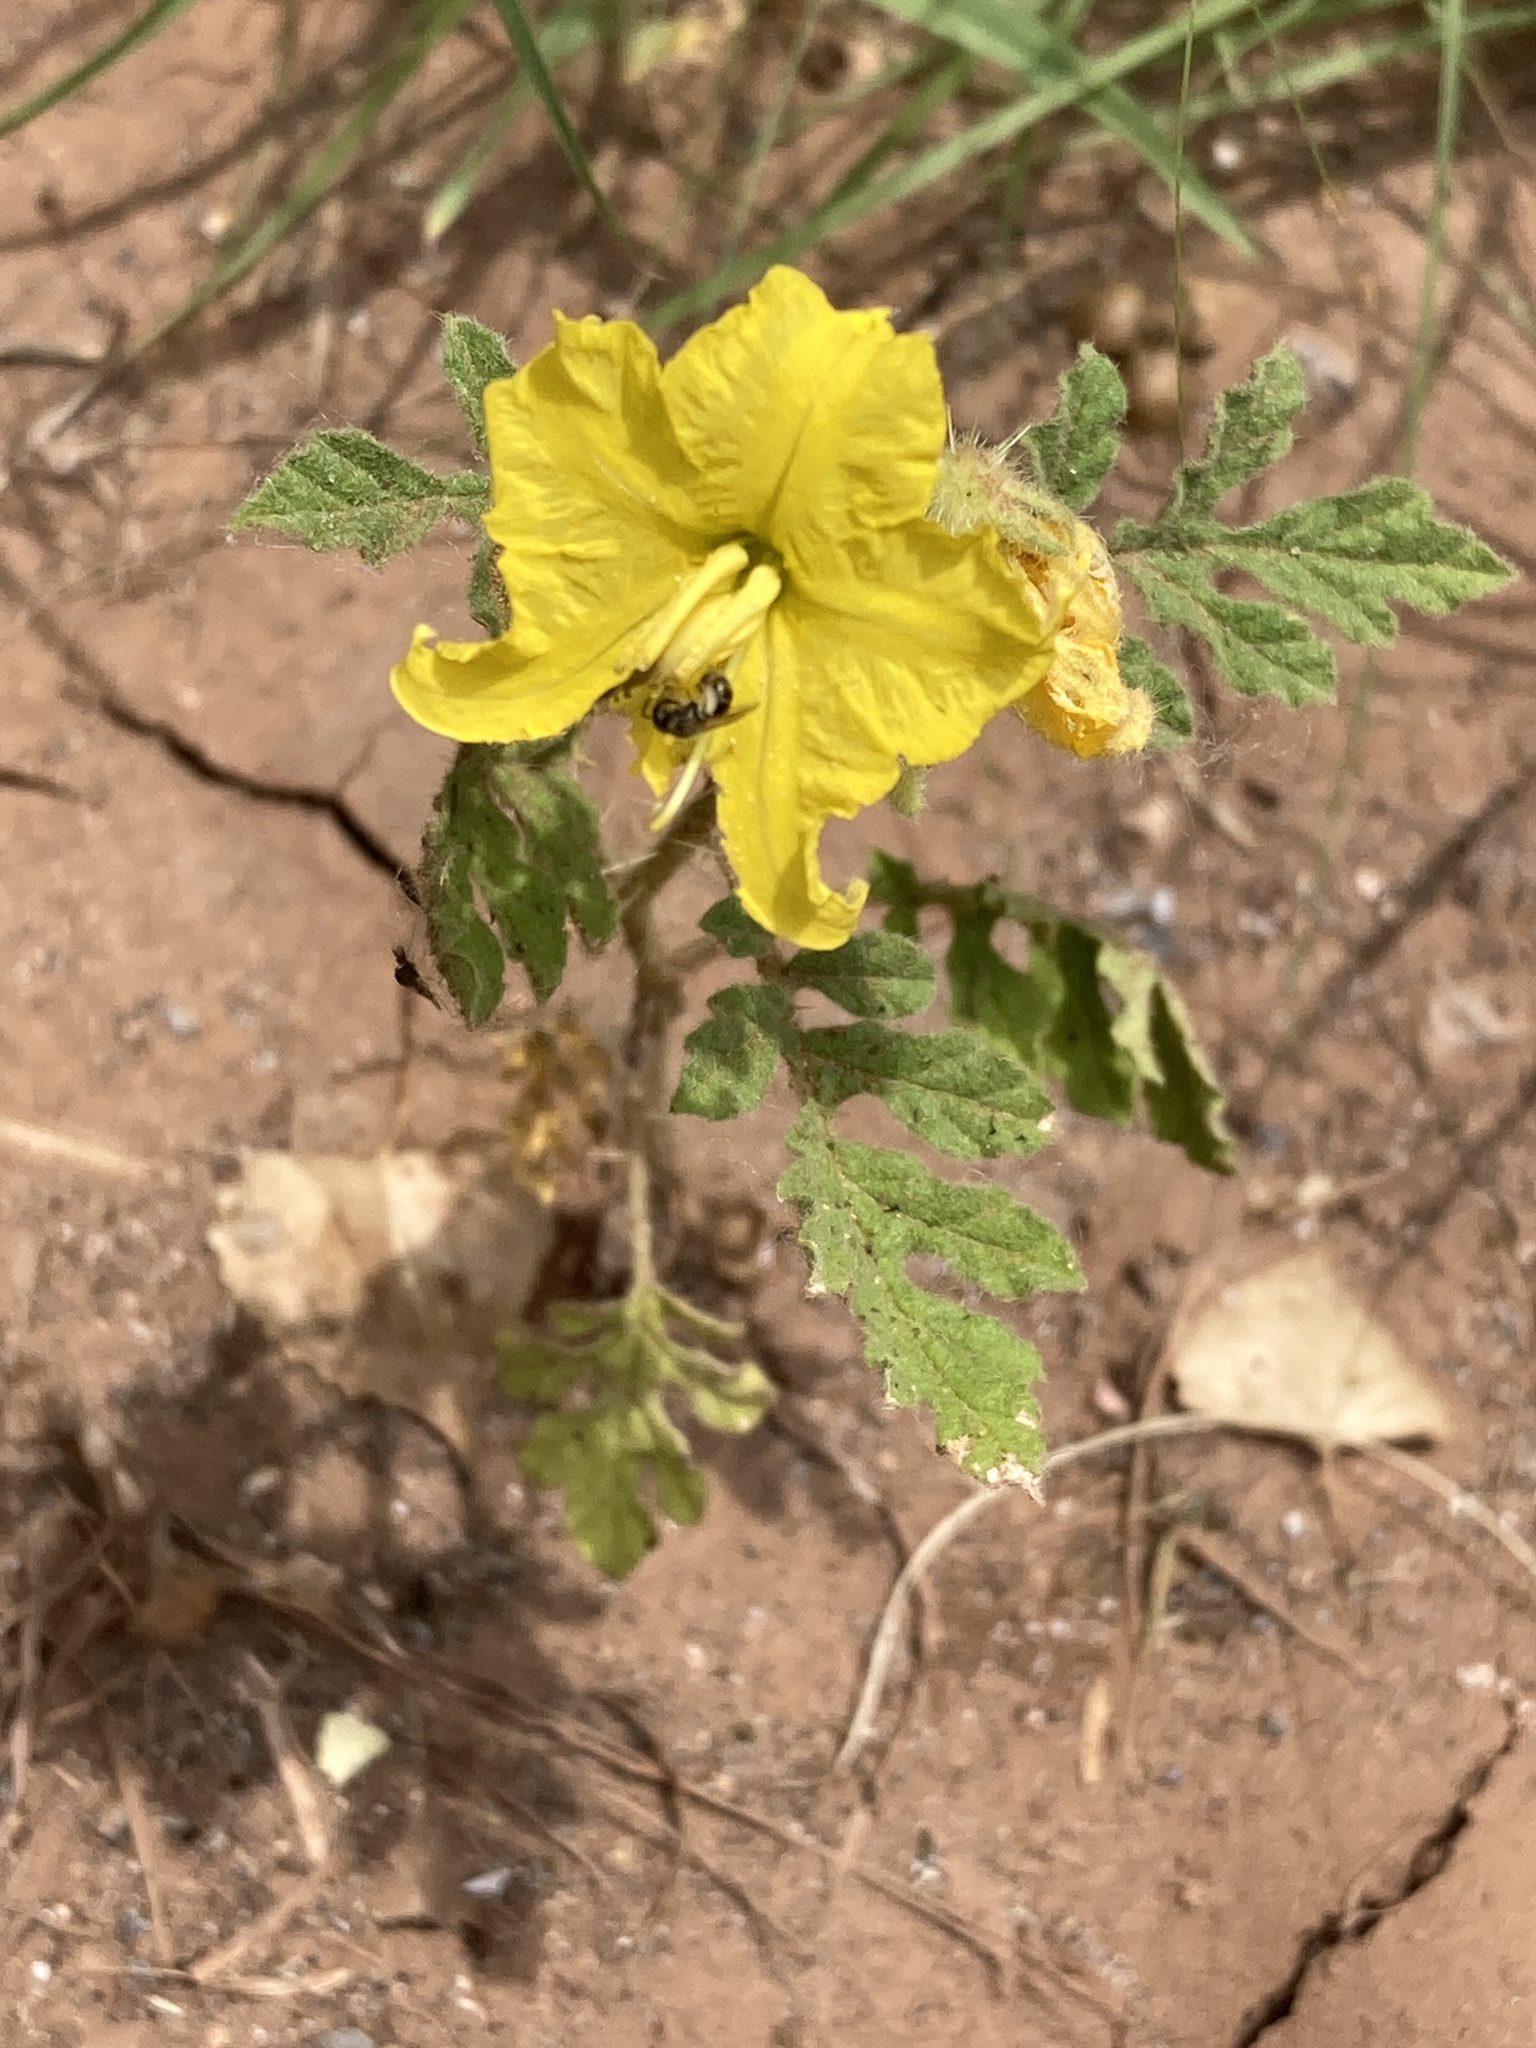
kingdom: Plantae
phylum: Tracheophyta
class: Magnoliopsida
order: Solanales
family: Solanaceae
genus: Solanum
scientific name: Solanum angustifolium
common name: Buffalobur nightshade
